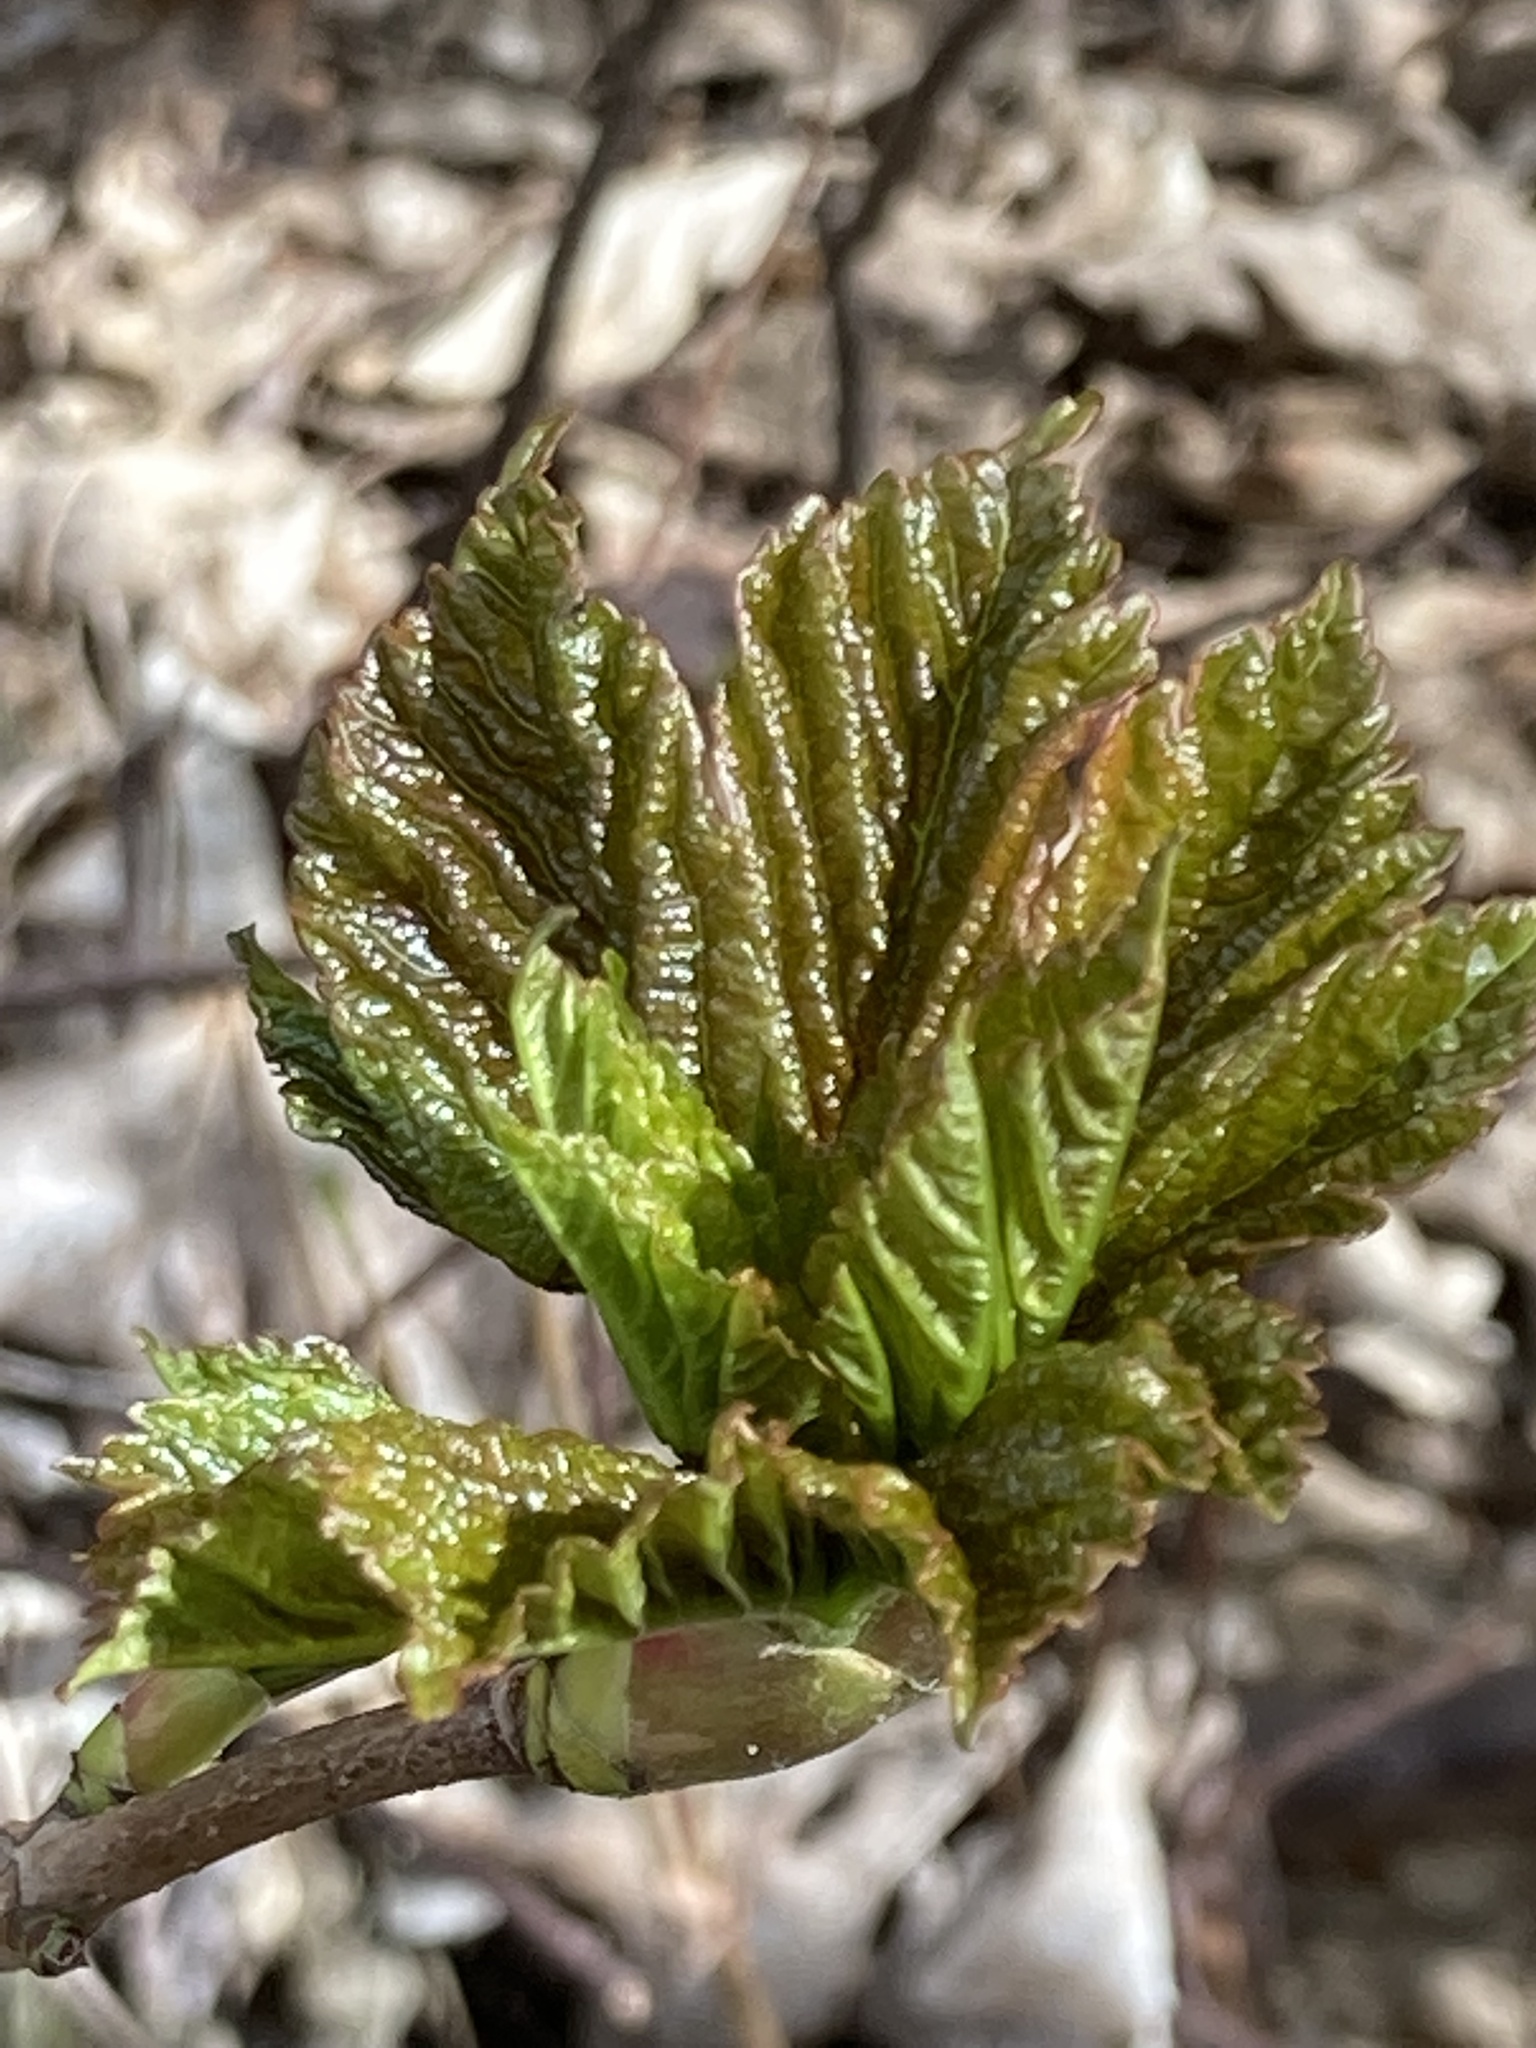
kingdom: Plantae
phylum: Tracheophyta
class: Magnoliopsida
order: Sapindales
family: Sapindaceae
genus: Acer
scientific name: Acer pseudoplatanus
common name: Sycamore
